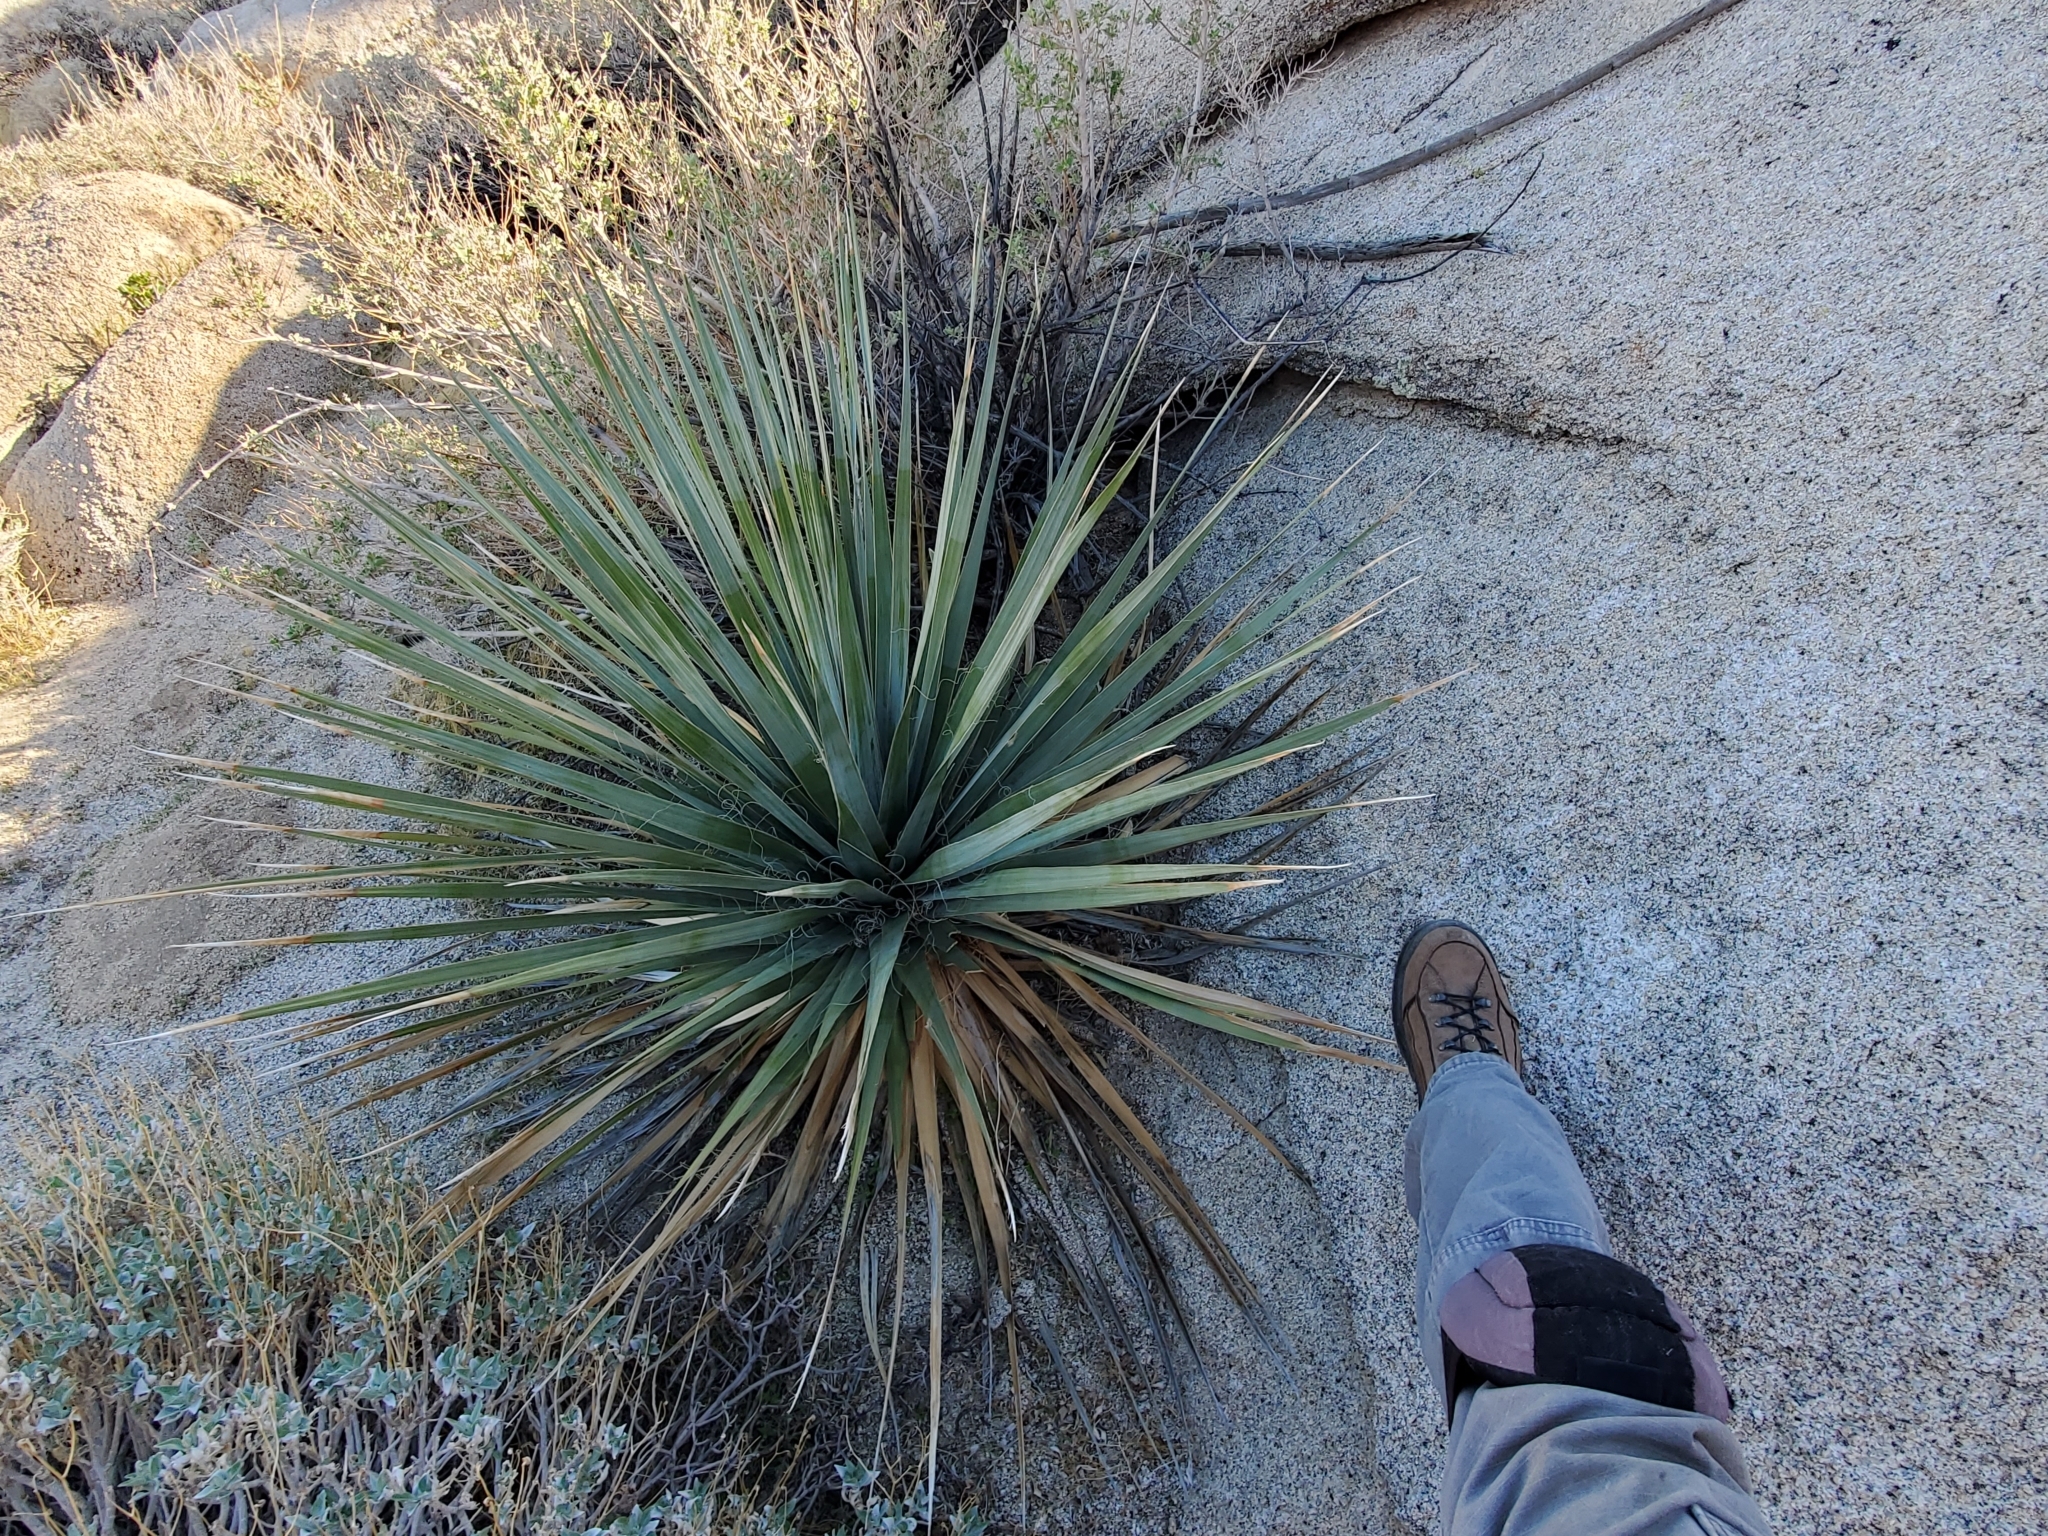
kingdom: Plantae
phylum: Tracheophyta
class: Liliopsida
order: Asparagales
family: Asparagaceae
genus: Nolina
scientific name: Nolina bigelovii
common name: Bigelow bear-grass
